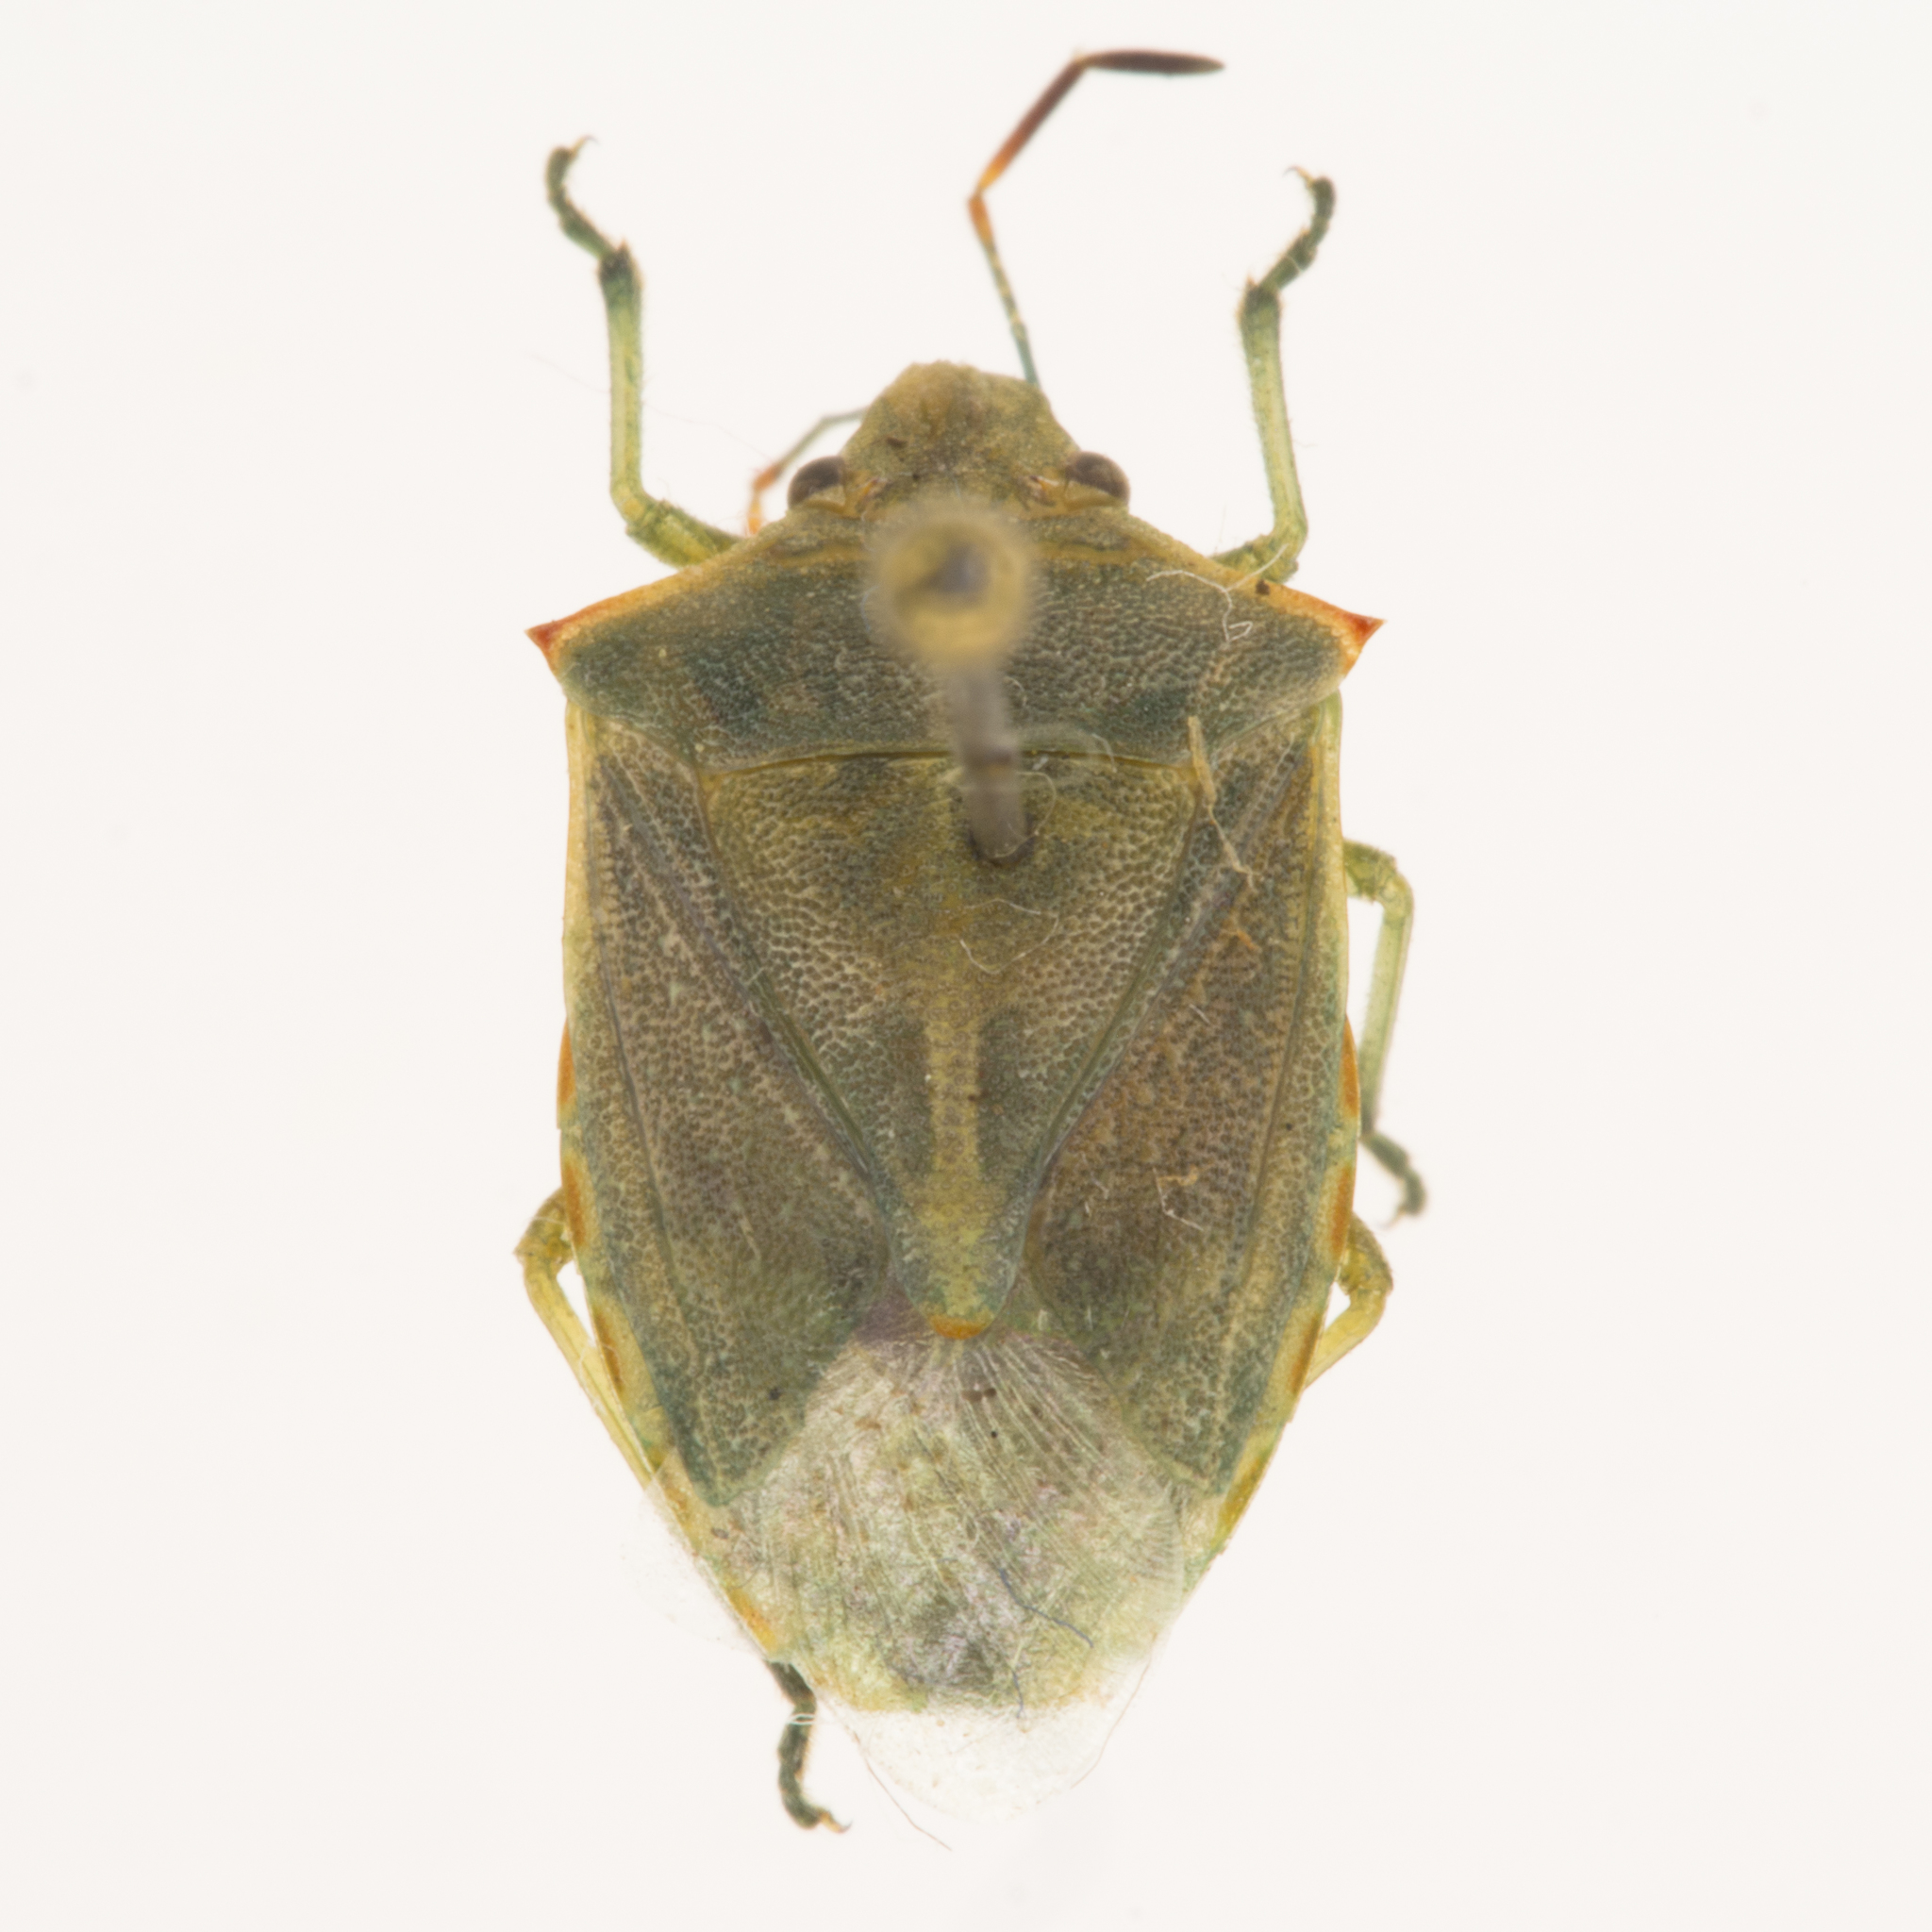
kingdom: Animalia
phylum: Arthropoda
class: Insecta
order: Hemiptera
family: Pentatomidae
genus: Thyanta
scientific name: Thyanta accerra
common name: Stink bug
